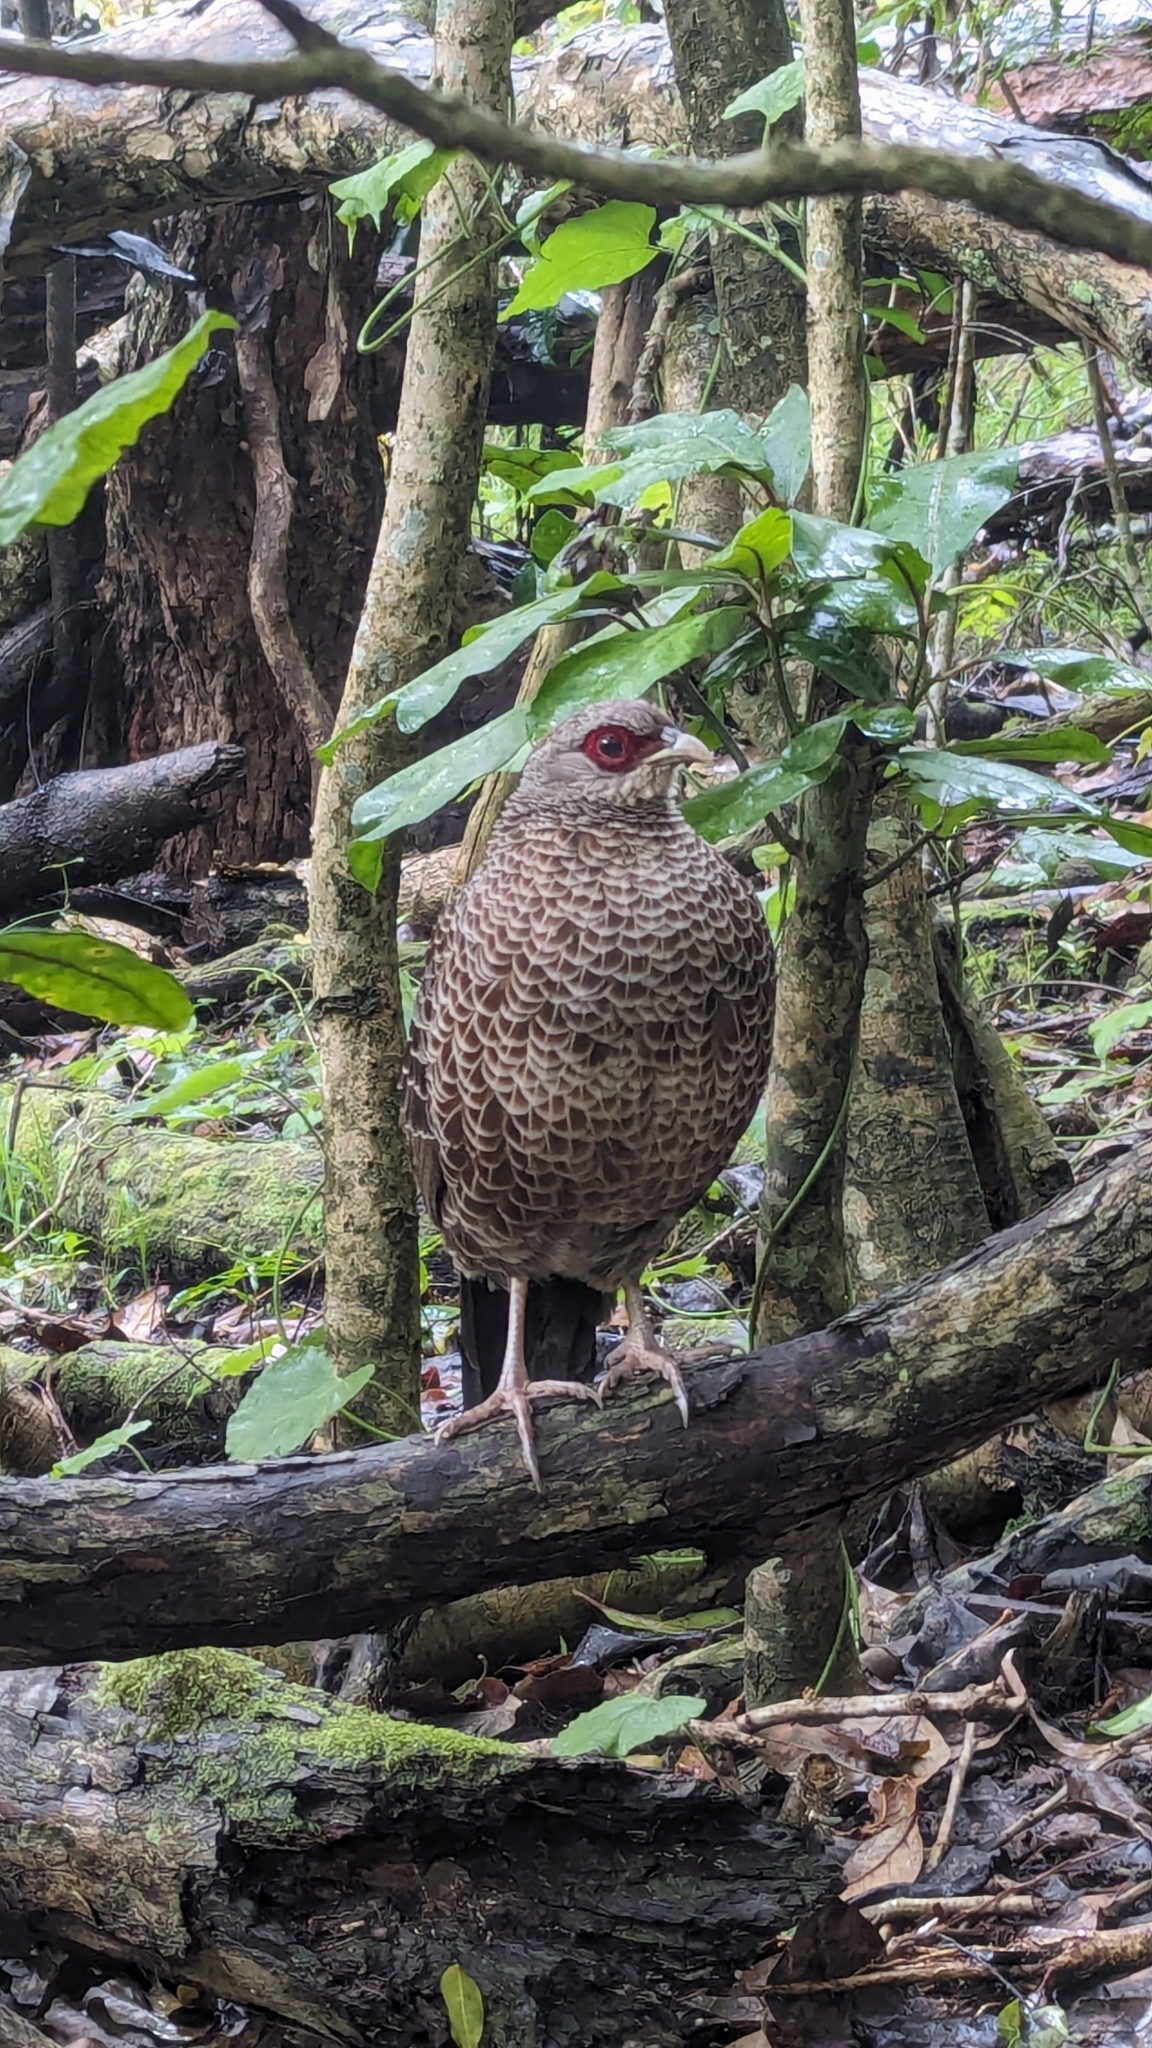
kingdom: Animalia
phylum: Chordata
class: Aves
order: Galliformes
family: Phasianidae
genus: Lophura
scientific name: Lophura leucomelanos
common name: Kalij pheasant
